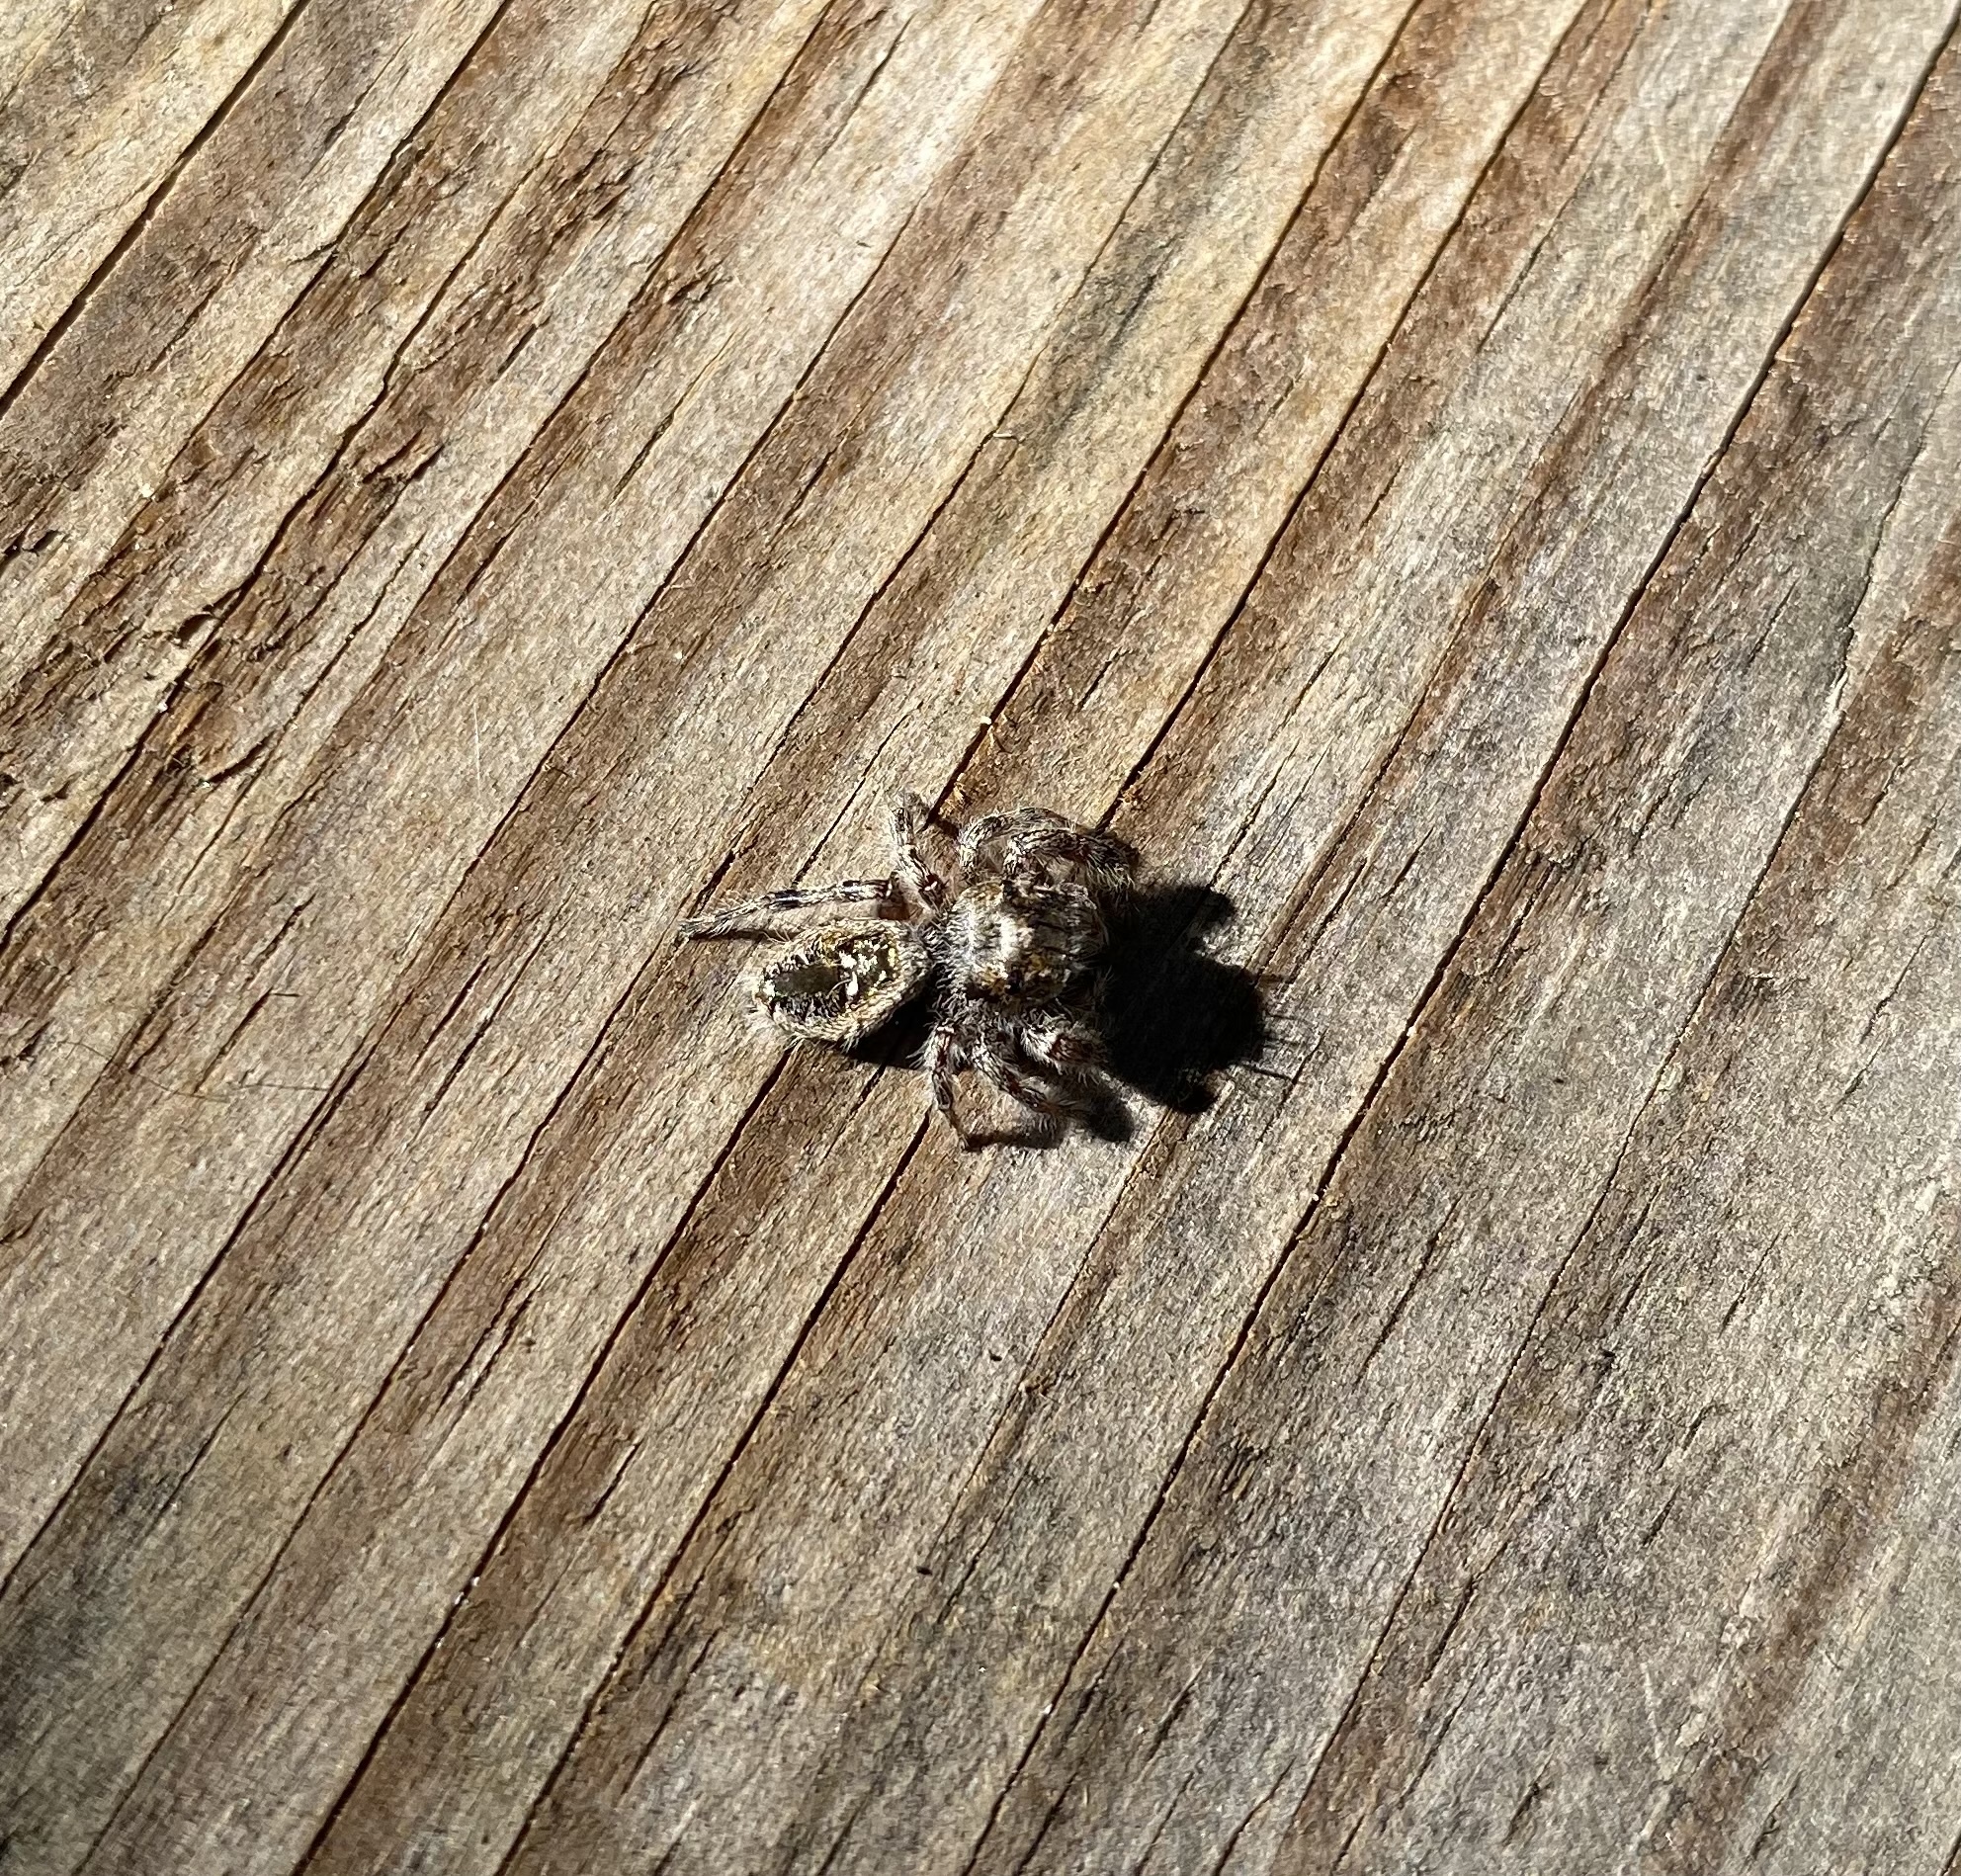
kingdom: Animalia
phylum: Arthropoda
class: Arachnida
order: Araneae
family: Salticidae
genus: Phidippus
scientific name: Phidippus putnami
